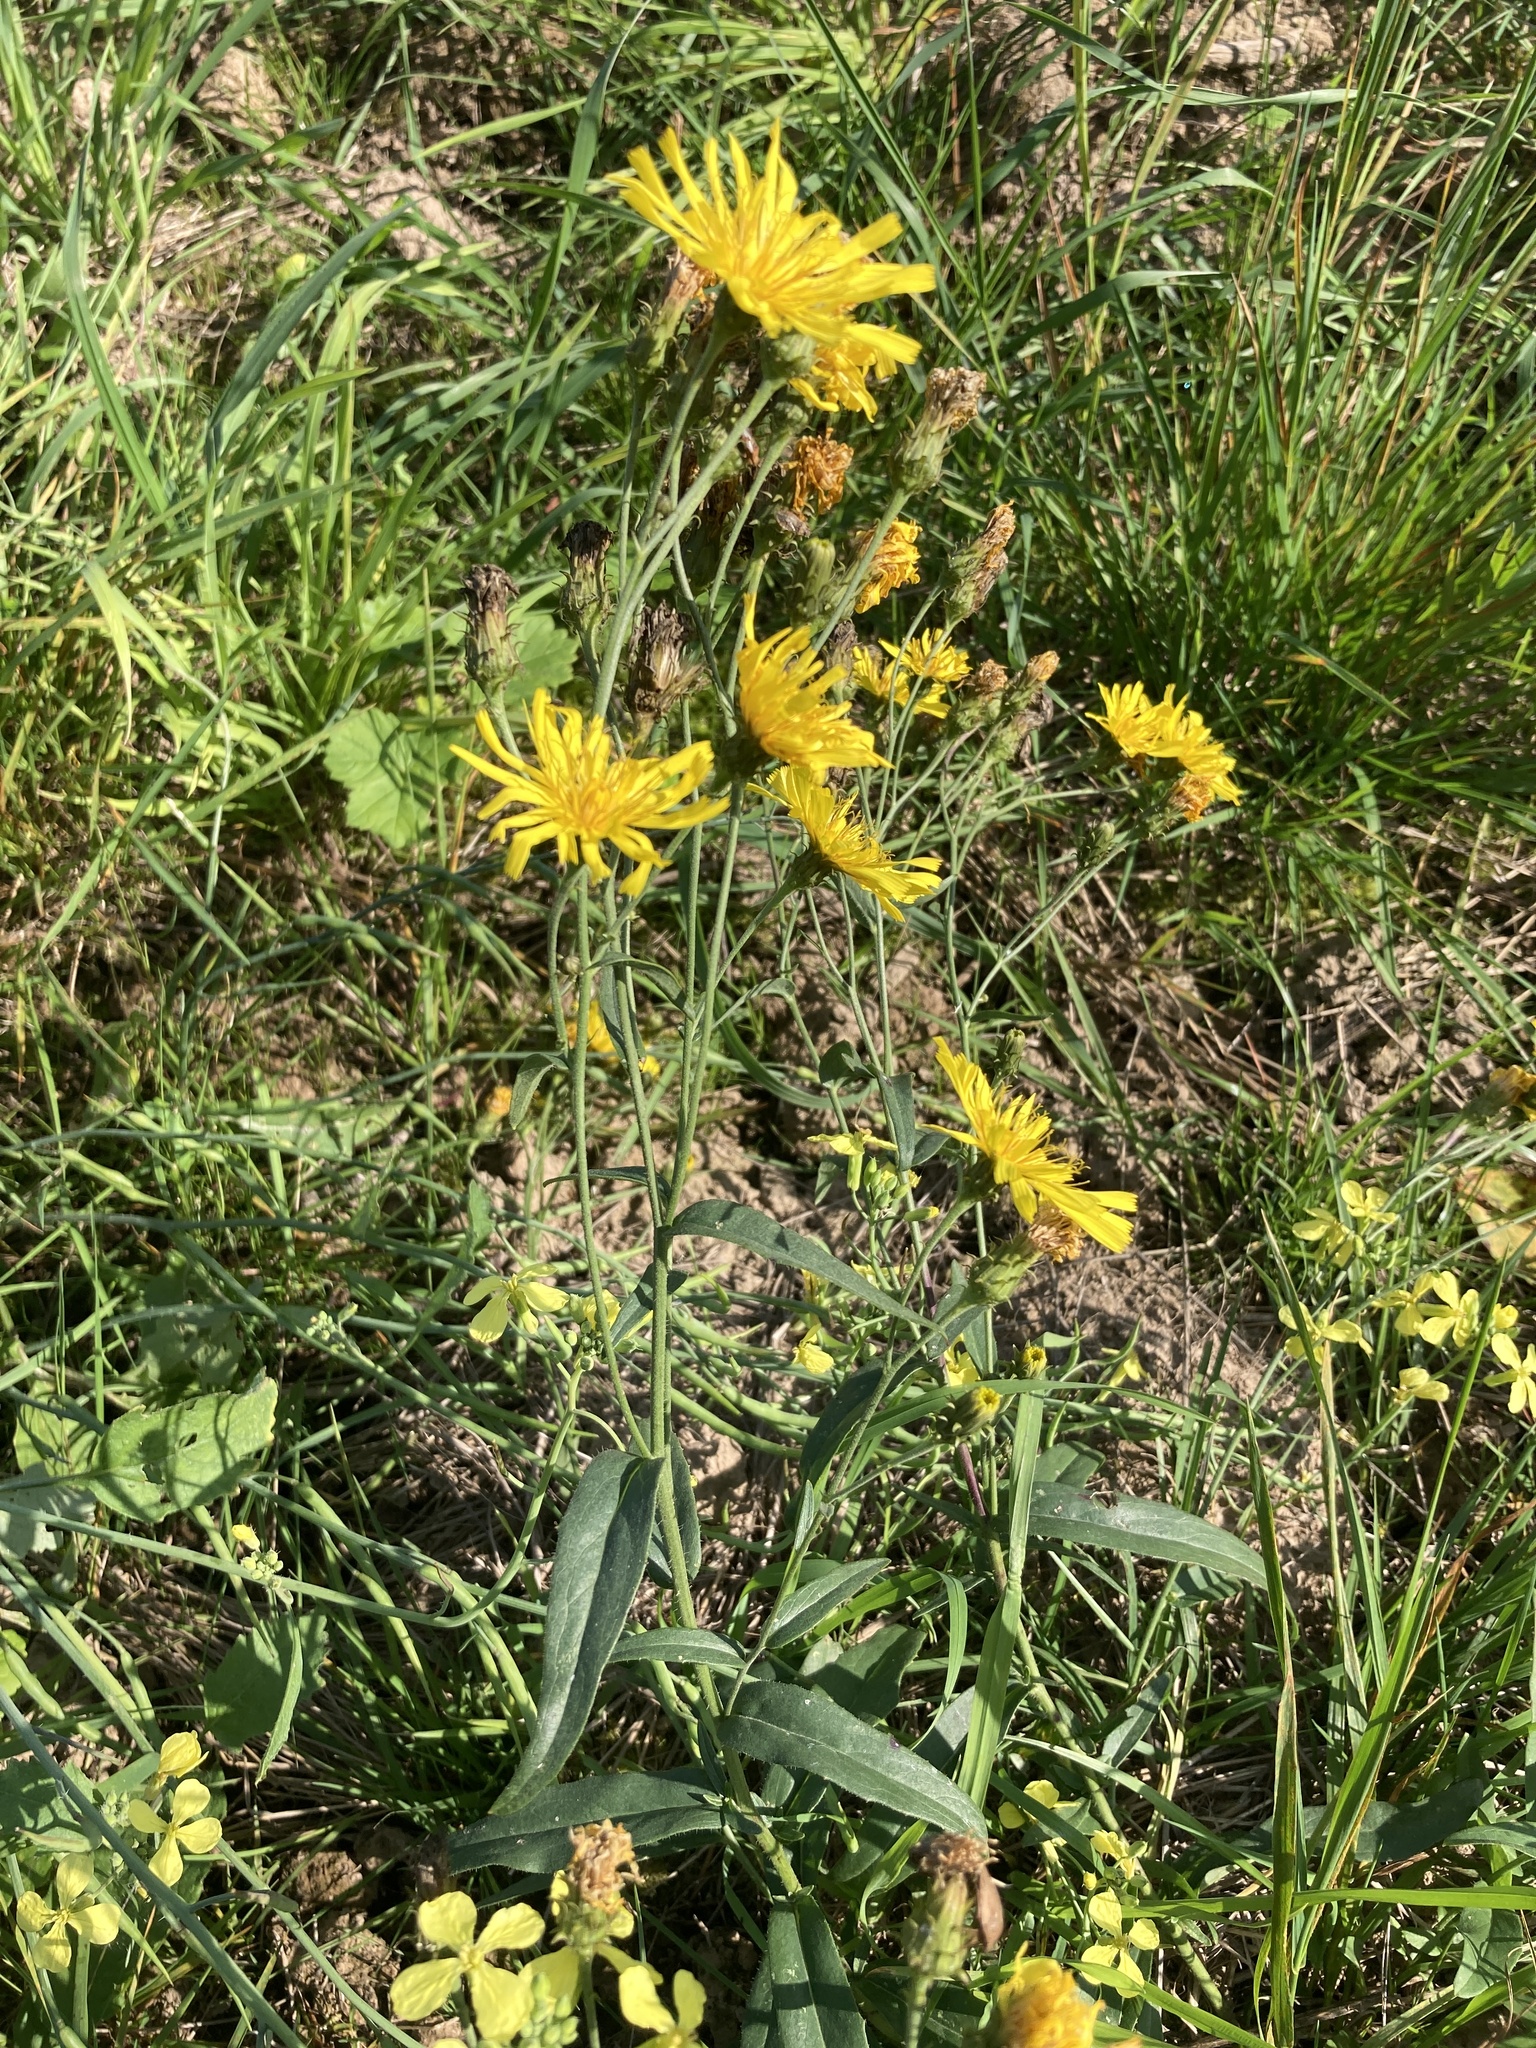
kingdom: Plantae
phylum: Tracheophyta
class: Magnoliopsida
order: Asterales
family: Asteraceae
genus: Hieracium
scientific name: Hieracium umbellatum
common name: Northern hawkweed
